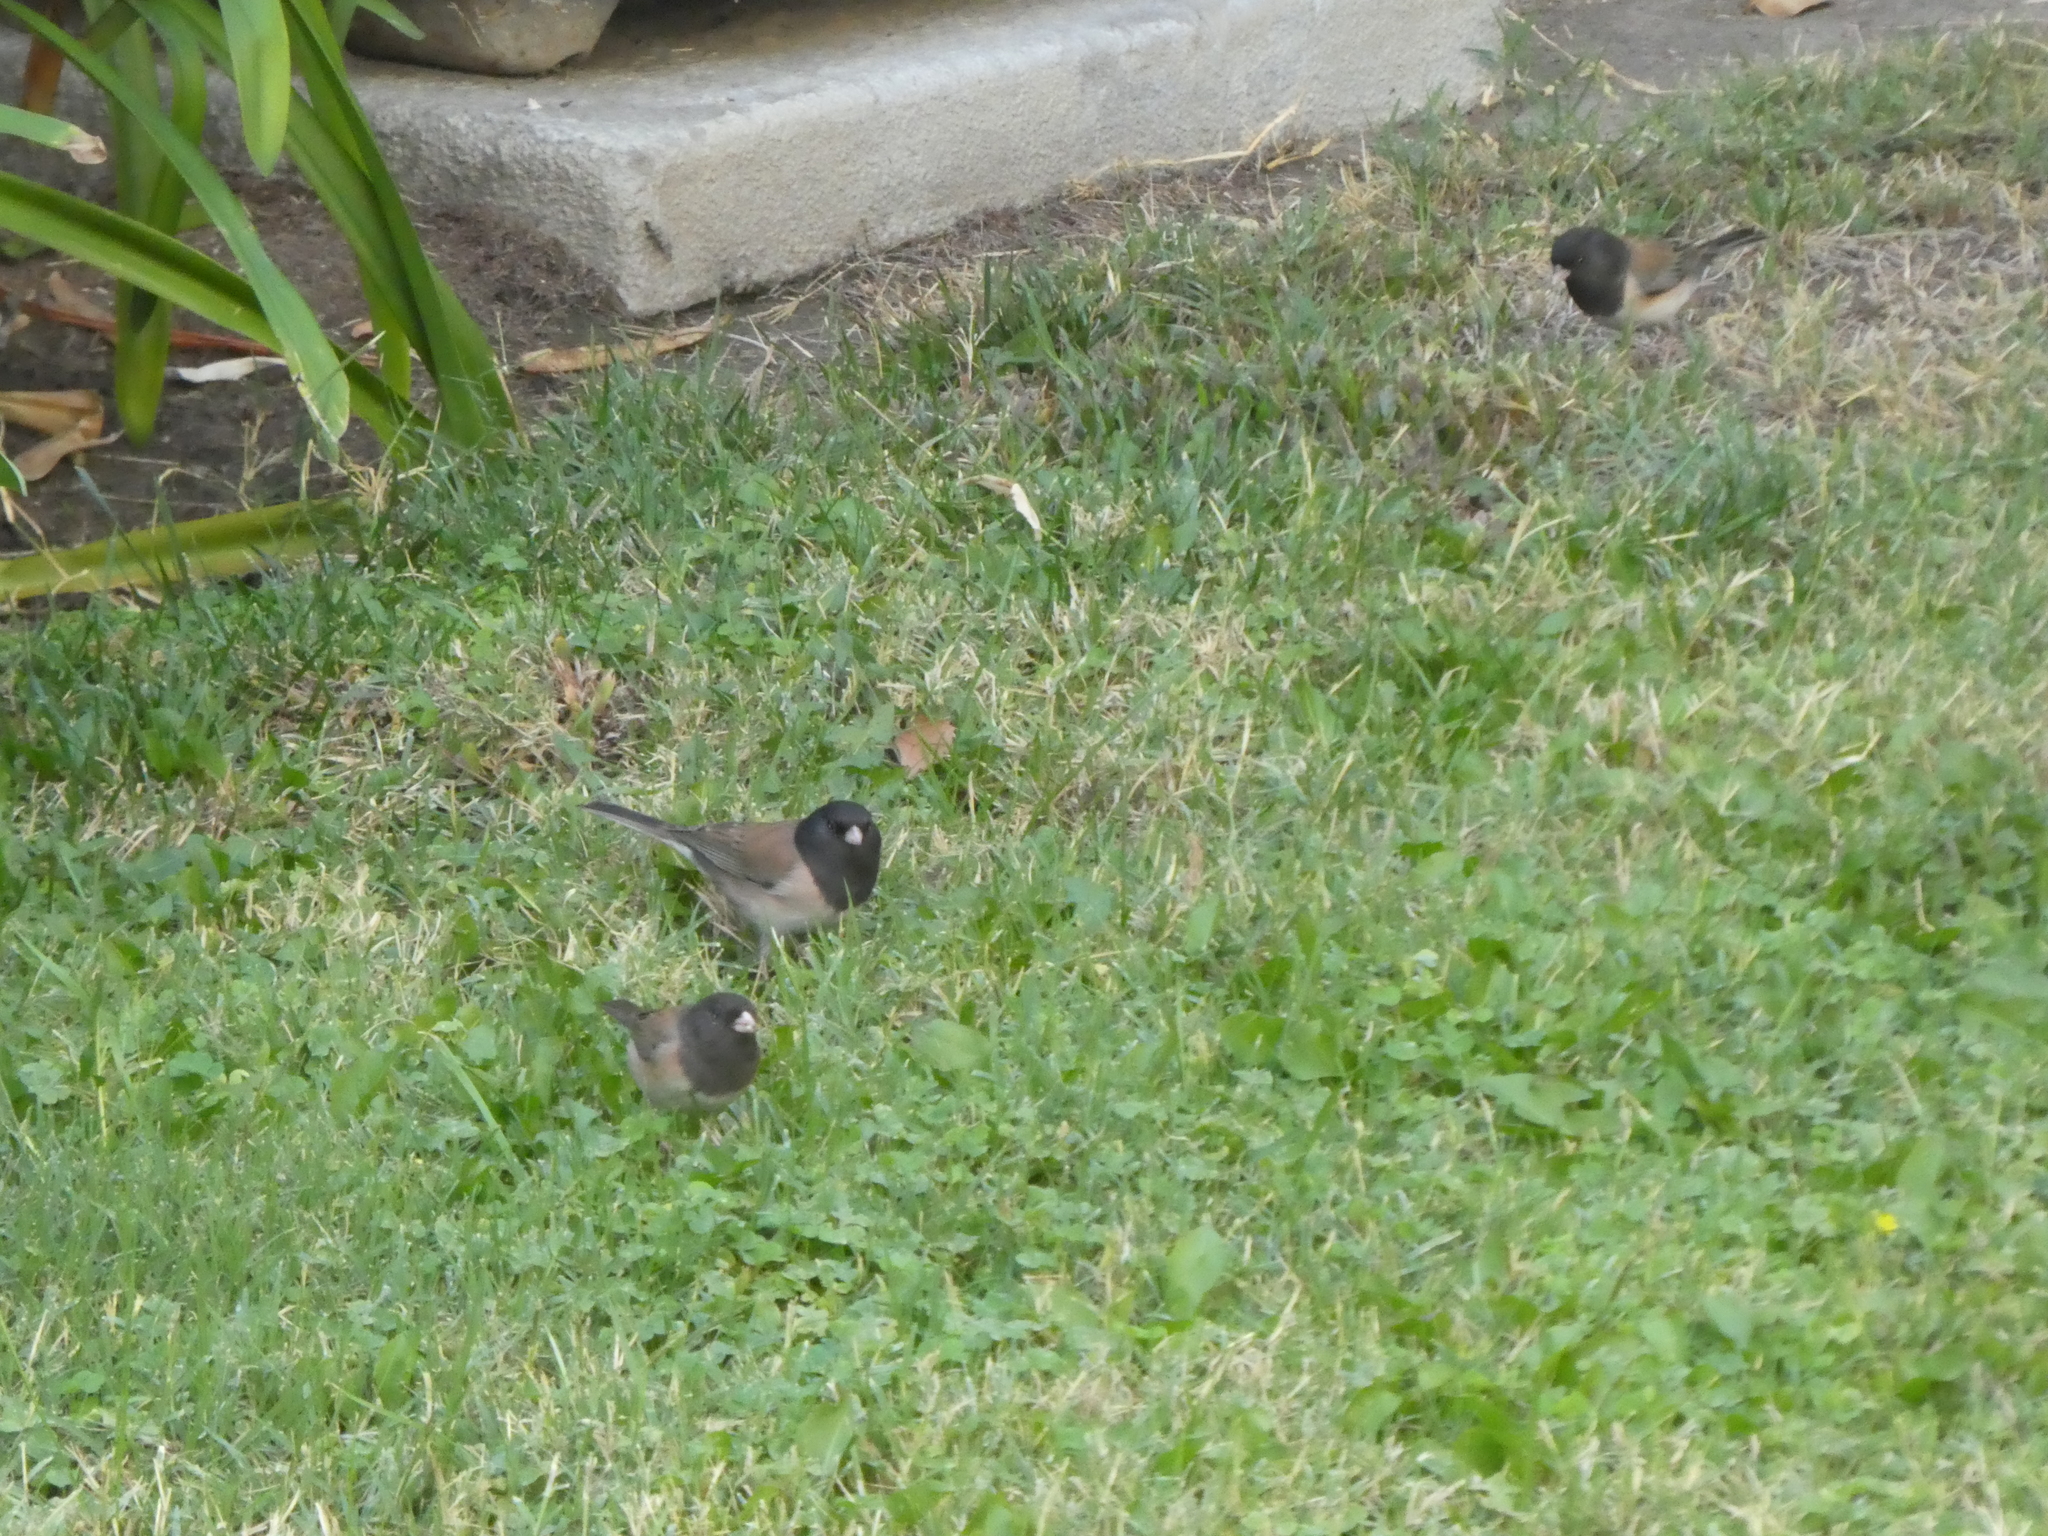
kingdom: Animalia
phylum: Chordata
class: Aves
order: Passeriformes
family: Passerellidae
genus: Junco
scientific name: Junco hyemalis
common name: Dark-eyed junco
